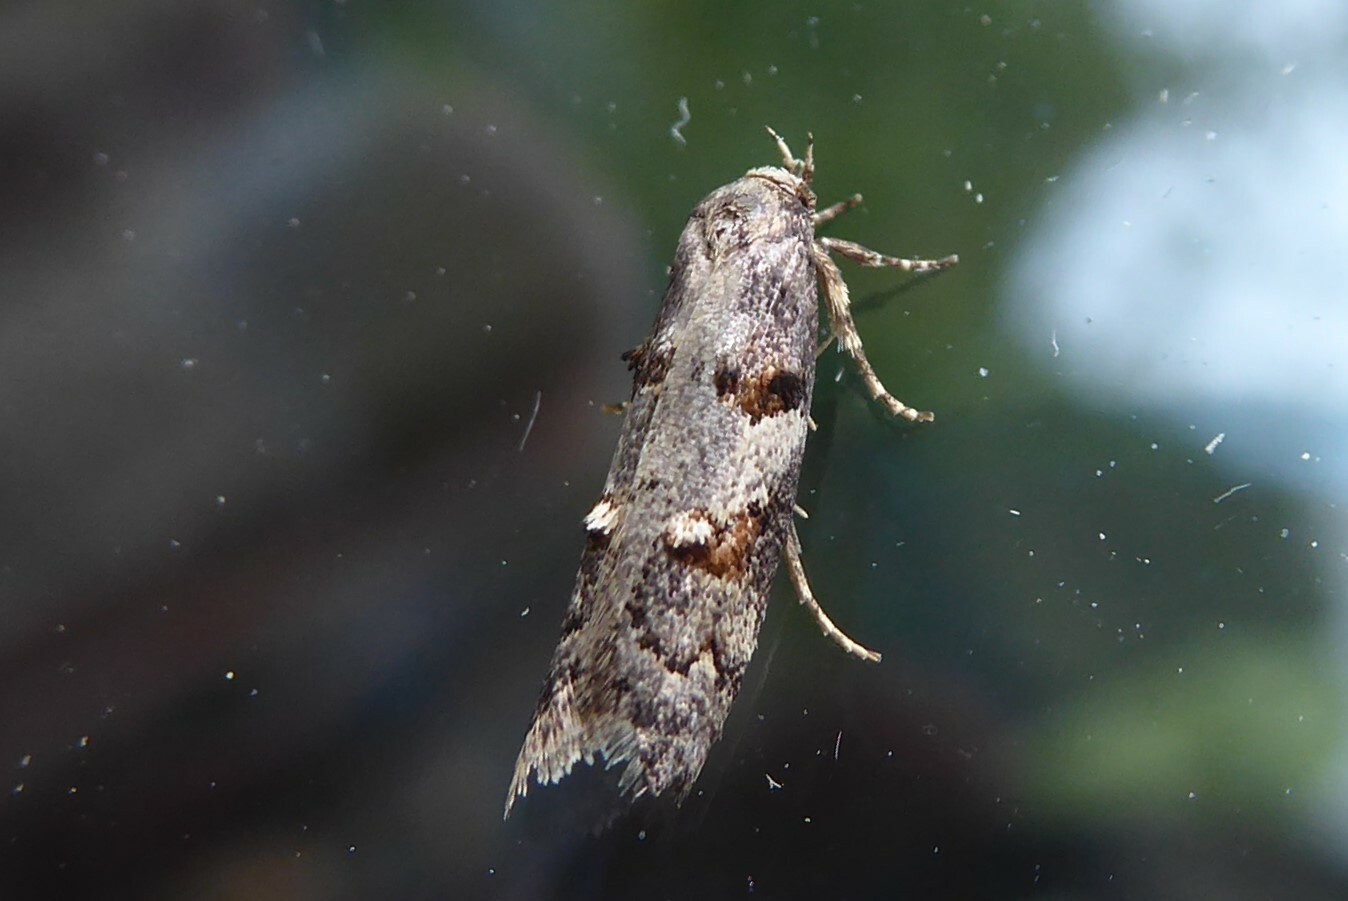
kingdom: Animalia
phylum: Arthropoda
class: Insecta
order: Lepidoptera
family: Oecophoridae
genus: Trachypepla
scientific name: Trachypepla contritella
